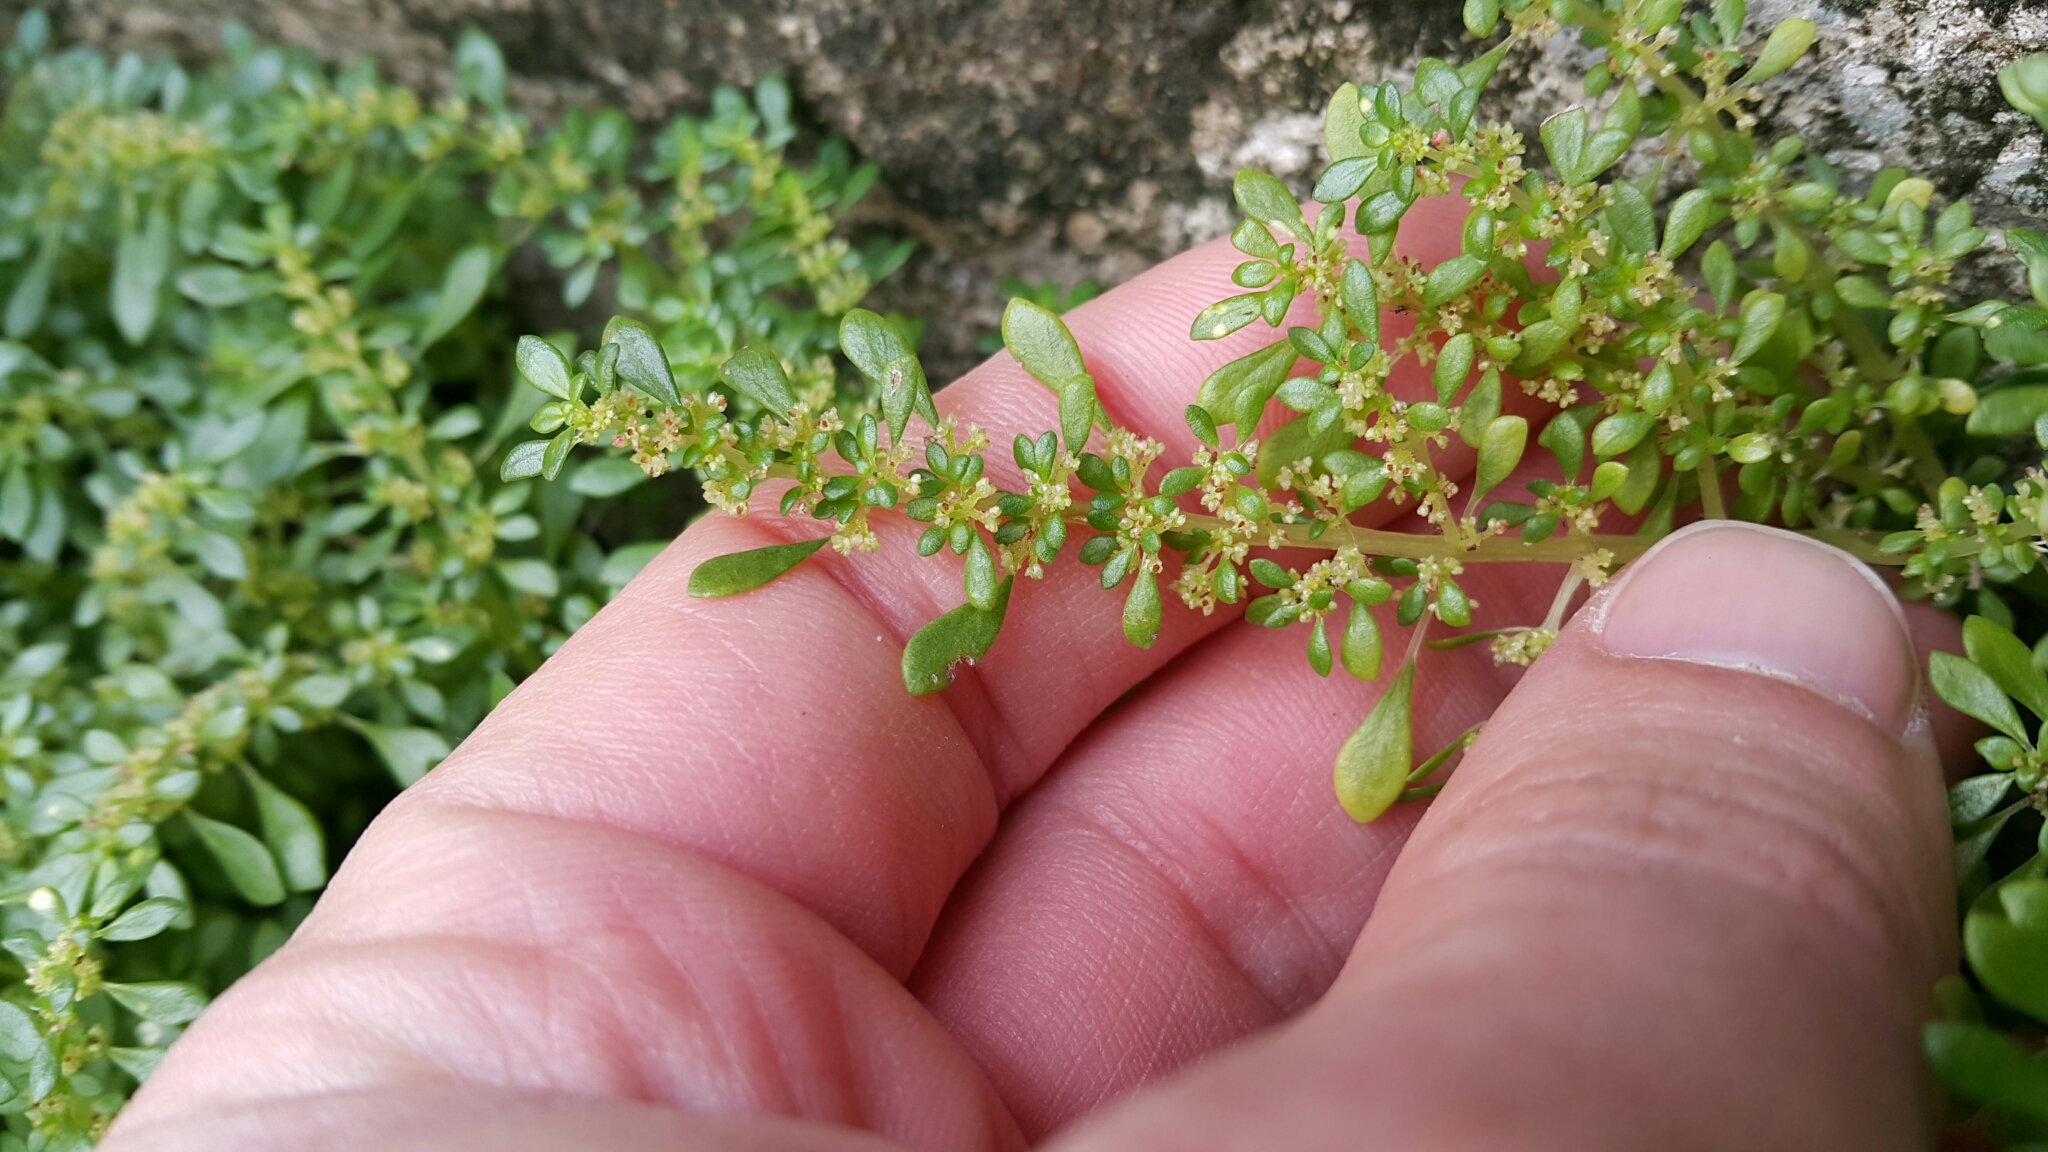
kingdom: Plantae
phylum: Tracheophyta
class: Magnoliopsida
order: Rosales
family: Urticaceae
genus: Pilea
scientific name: Pilea microphylla
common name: Artillery-plant
